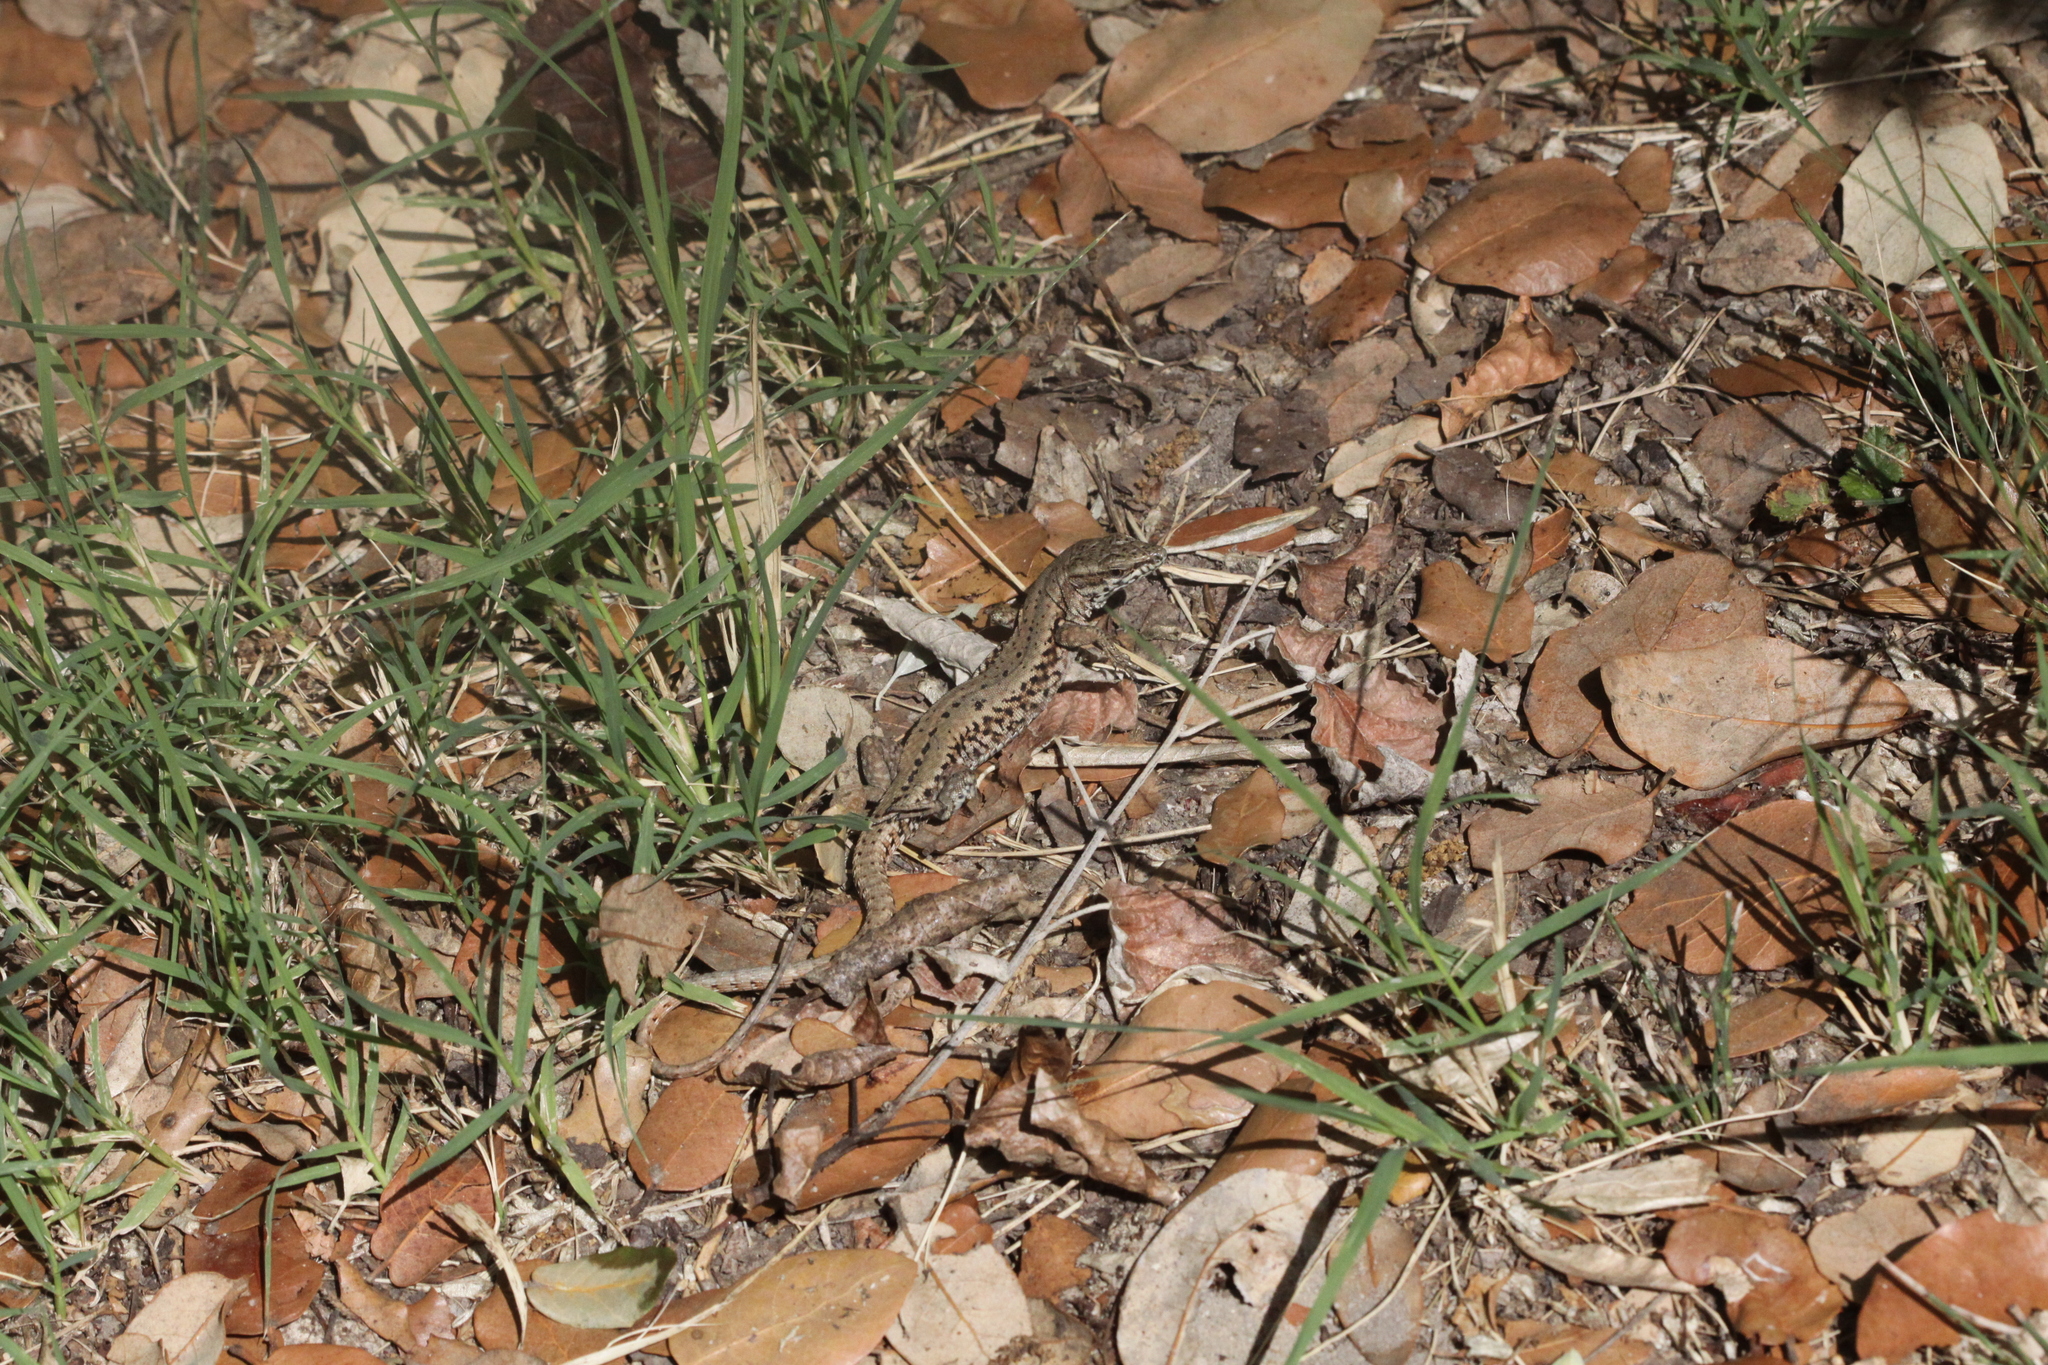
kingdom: Animalia
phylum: Chordata
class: Squamata
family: Lacertidae
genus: Podarcis
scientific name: Podarcis muralis
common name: Common wall lizard
